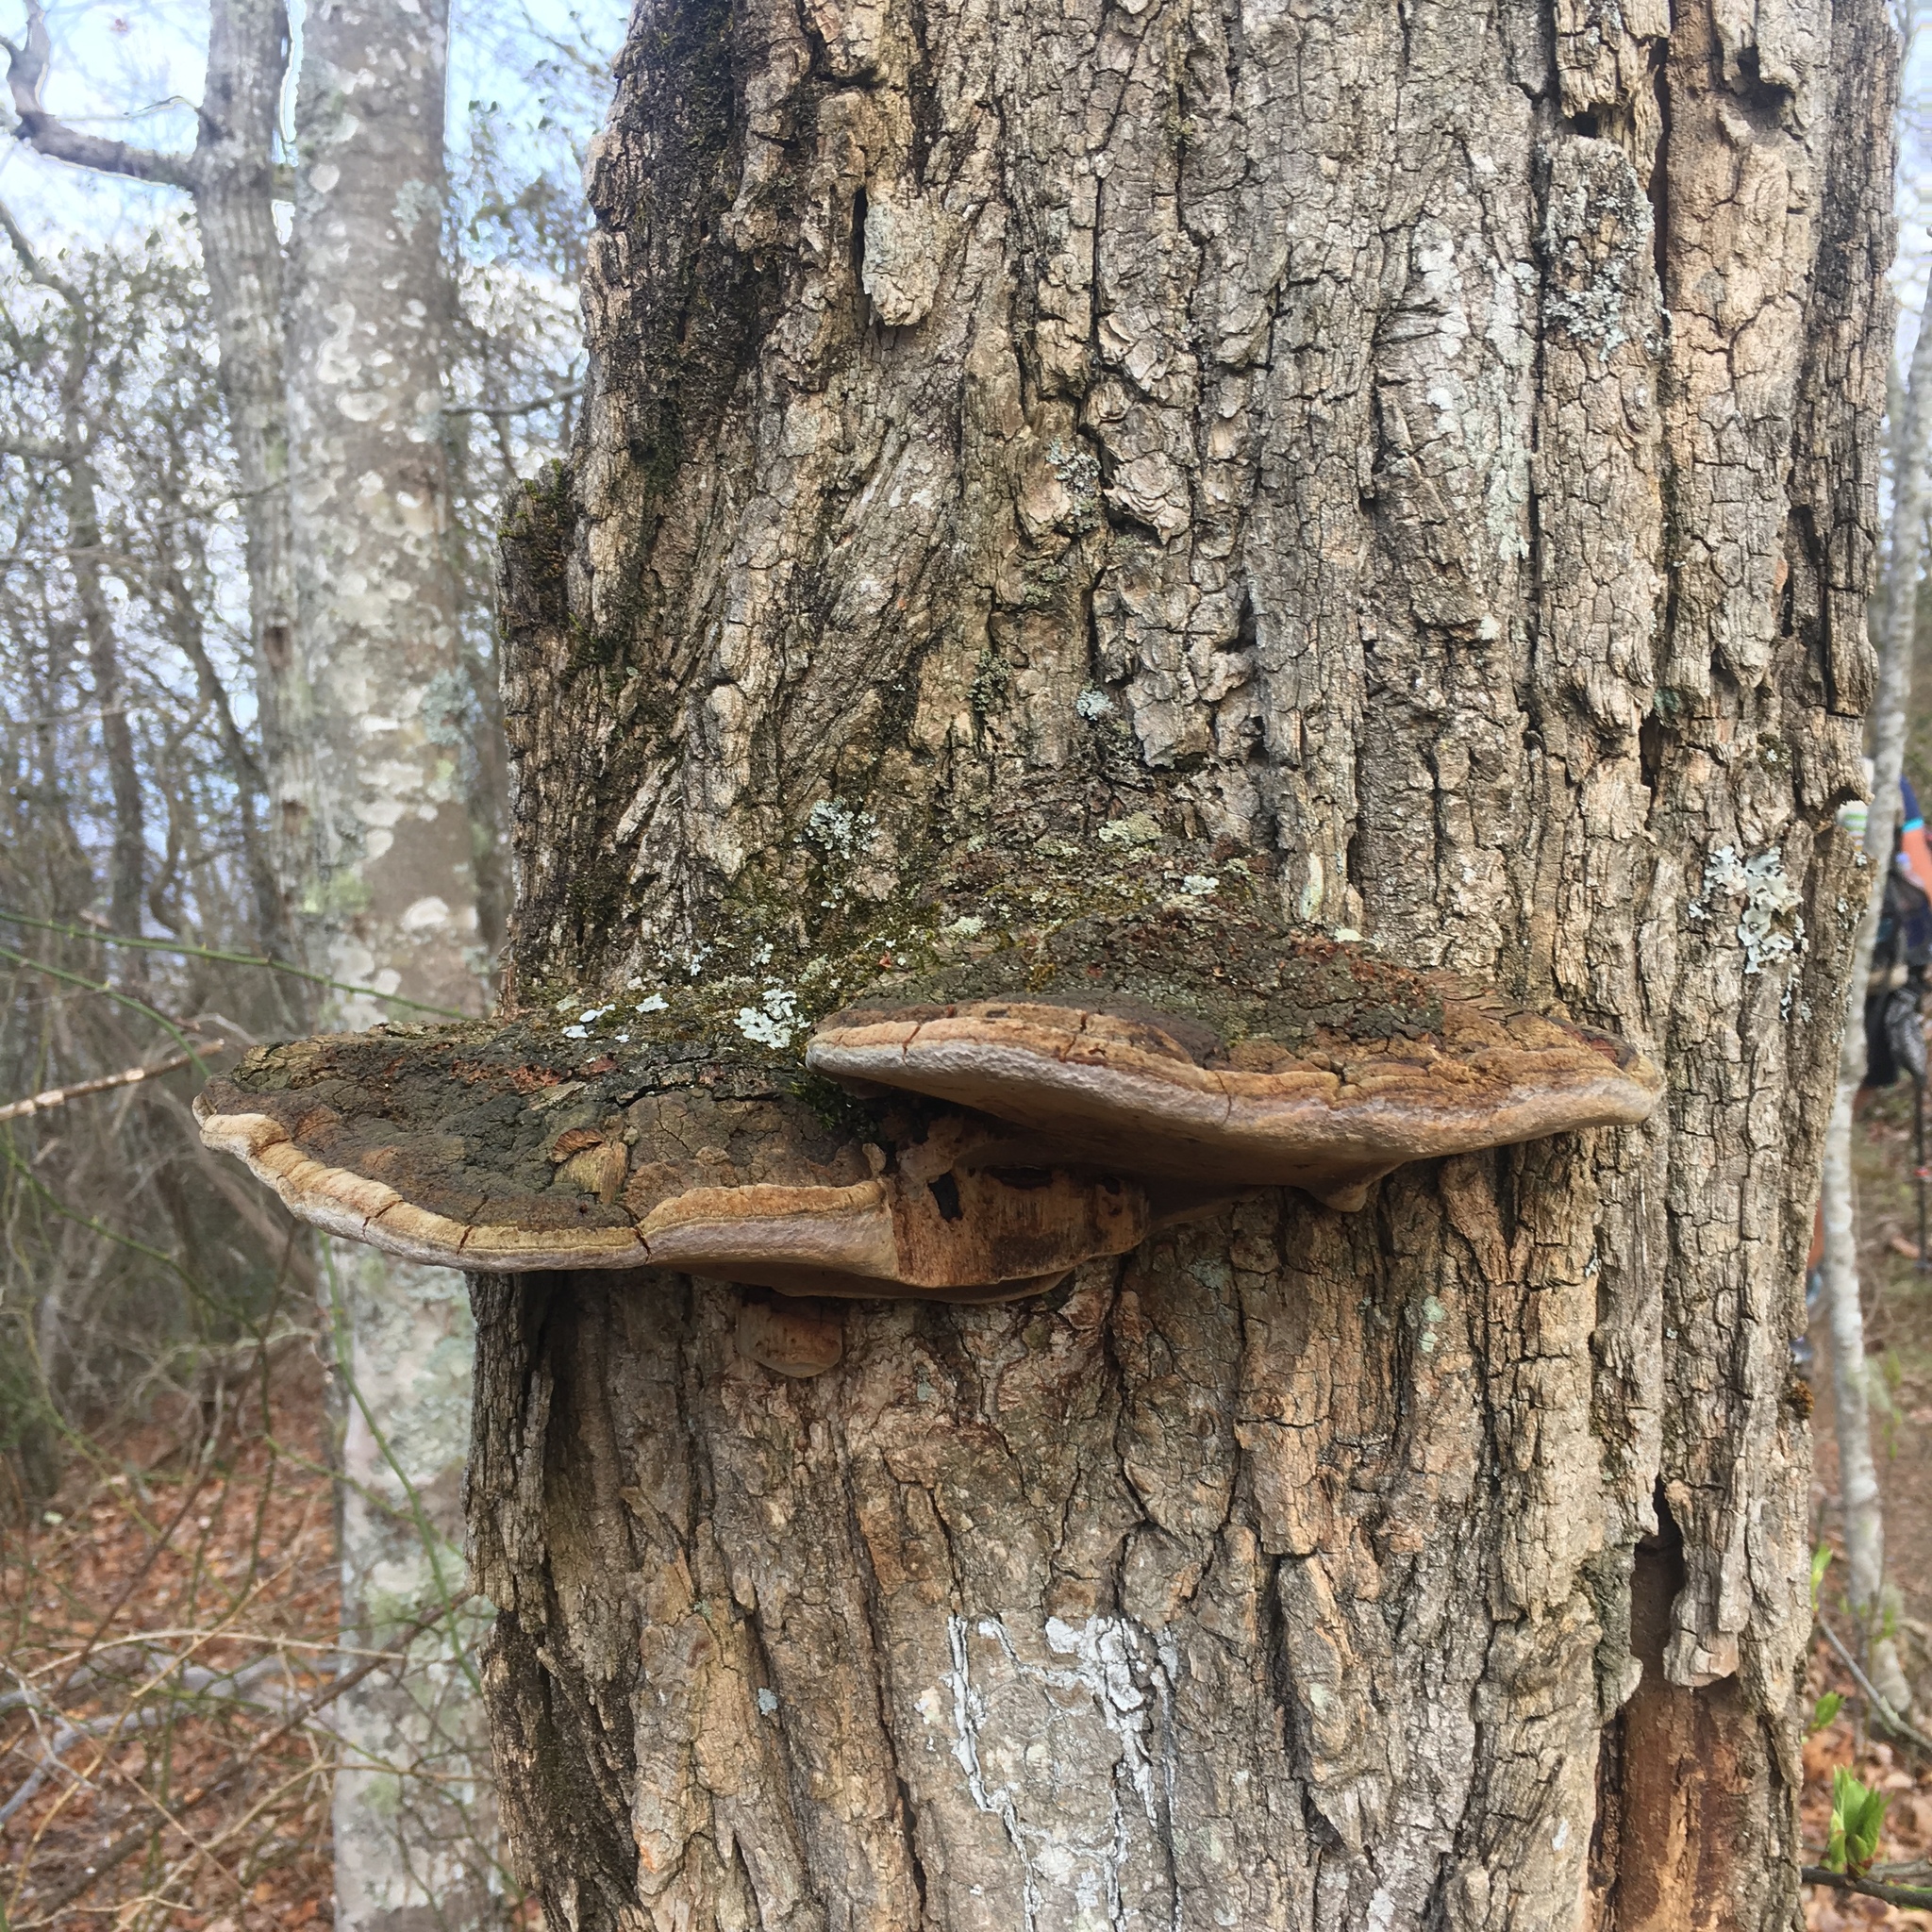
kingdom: Fungi
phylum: Basidiomycota
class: Agaricomycetes
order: Hymenochaetales
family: Hymenochaetaceae
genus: Phellinus
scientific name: Phellinus robiniae
